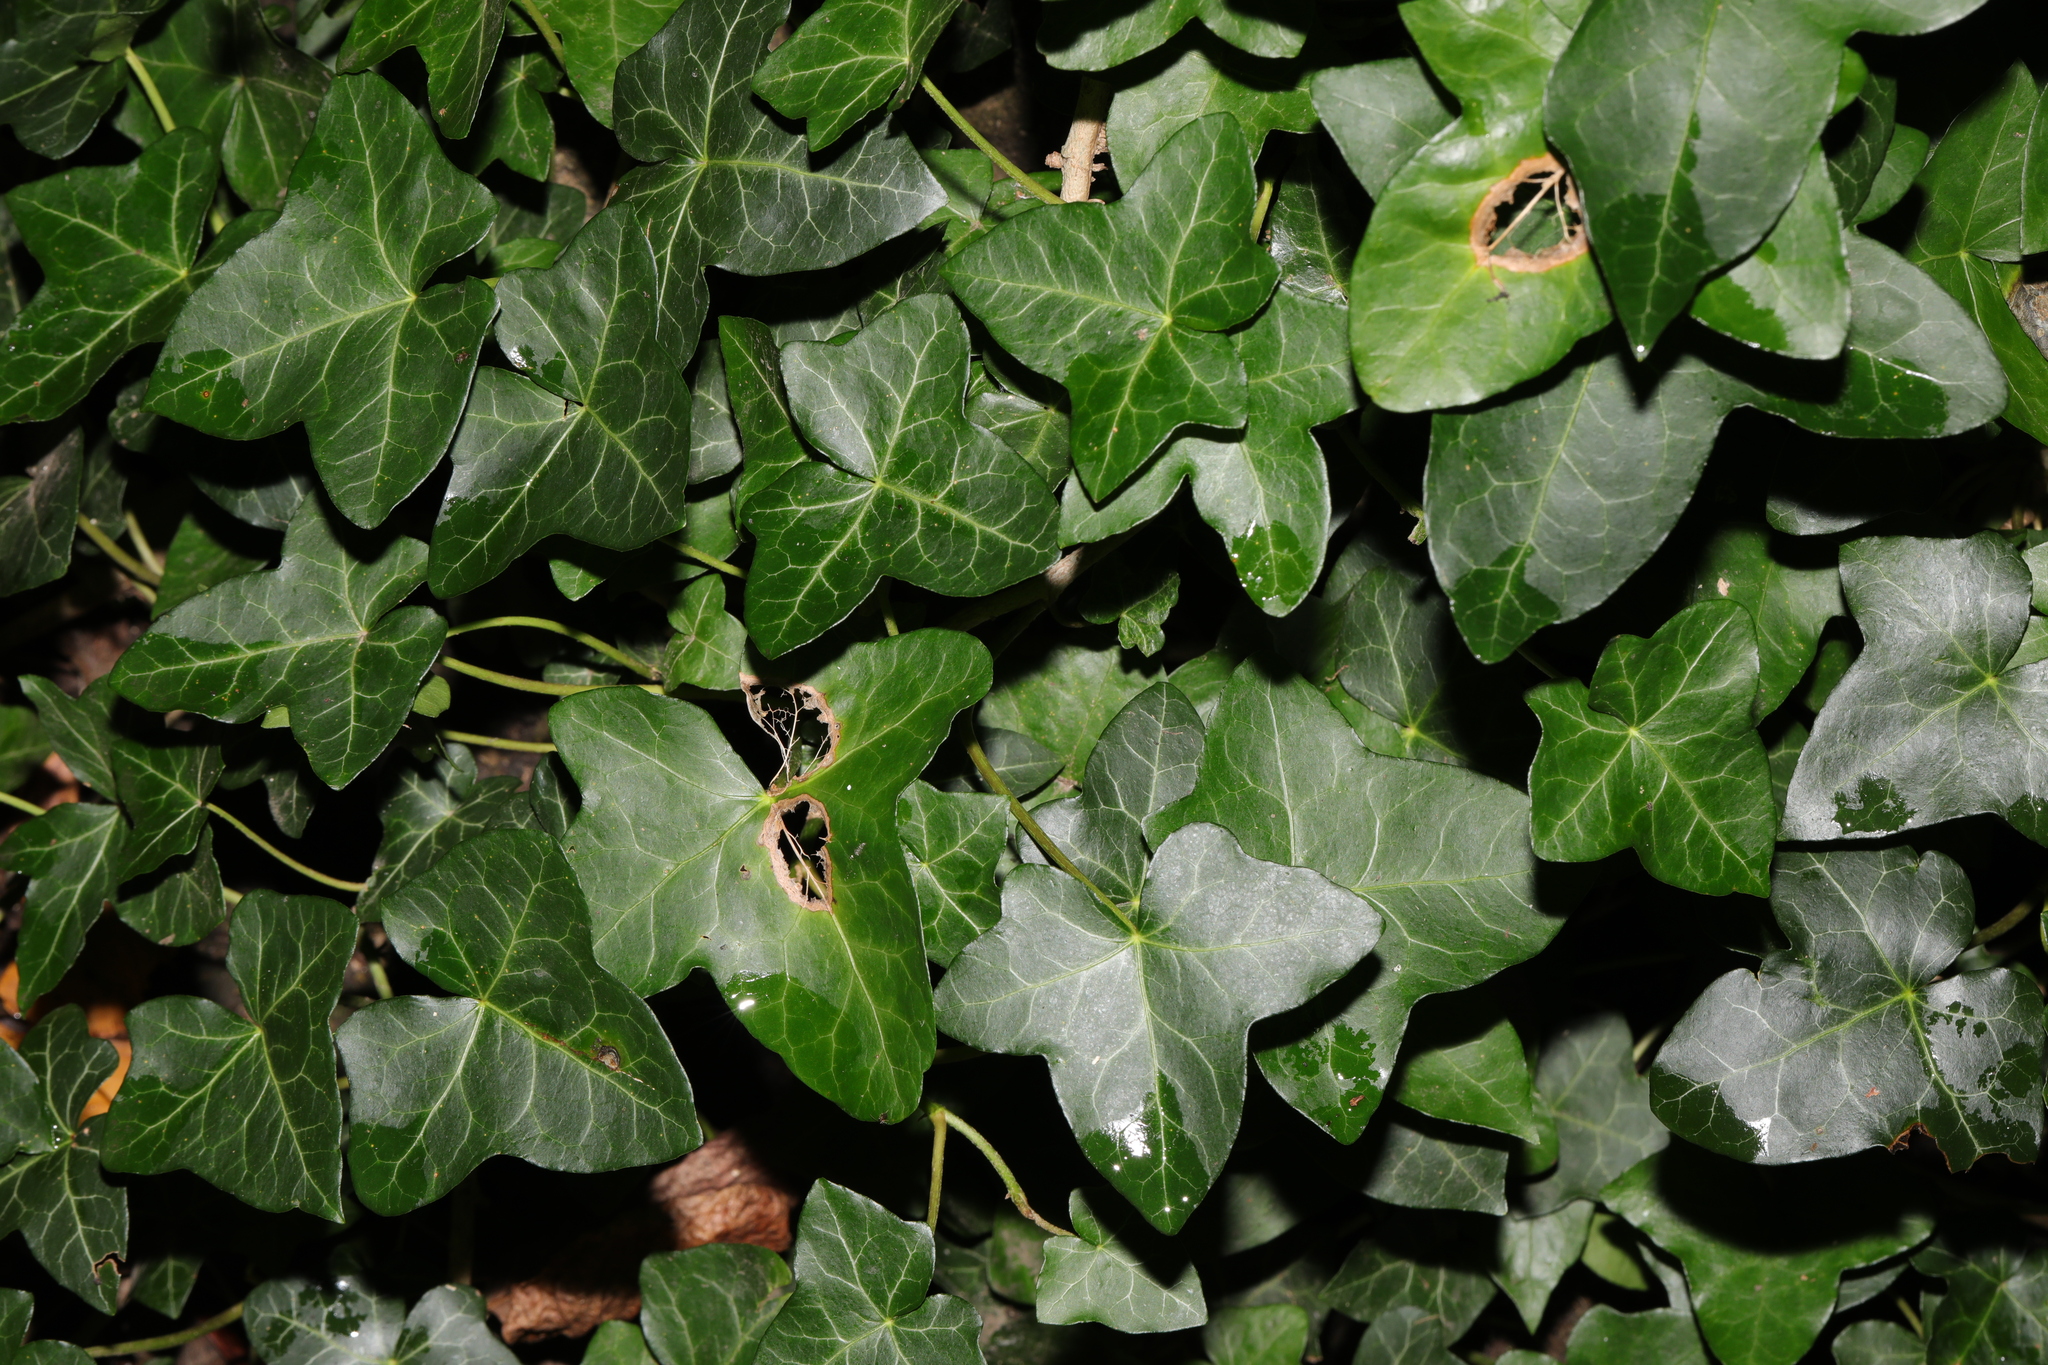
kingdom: Plantae
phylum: Tracheophyta
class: Magnoliopsida
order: Apiales
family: Araliaceae
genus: Hedera
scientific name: Hedera helix
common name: Ivy
